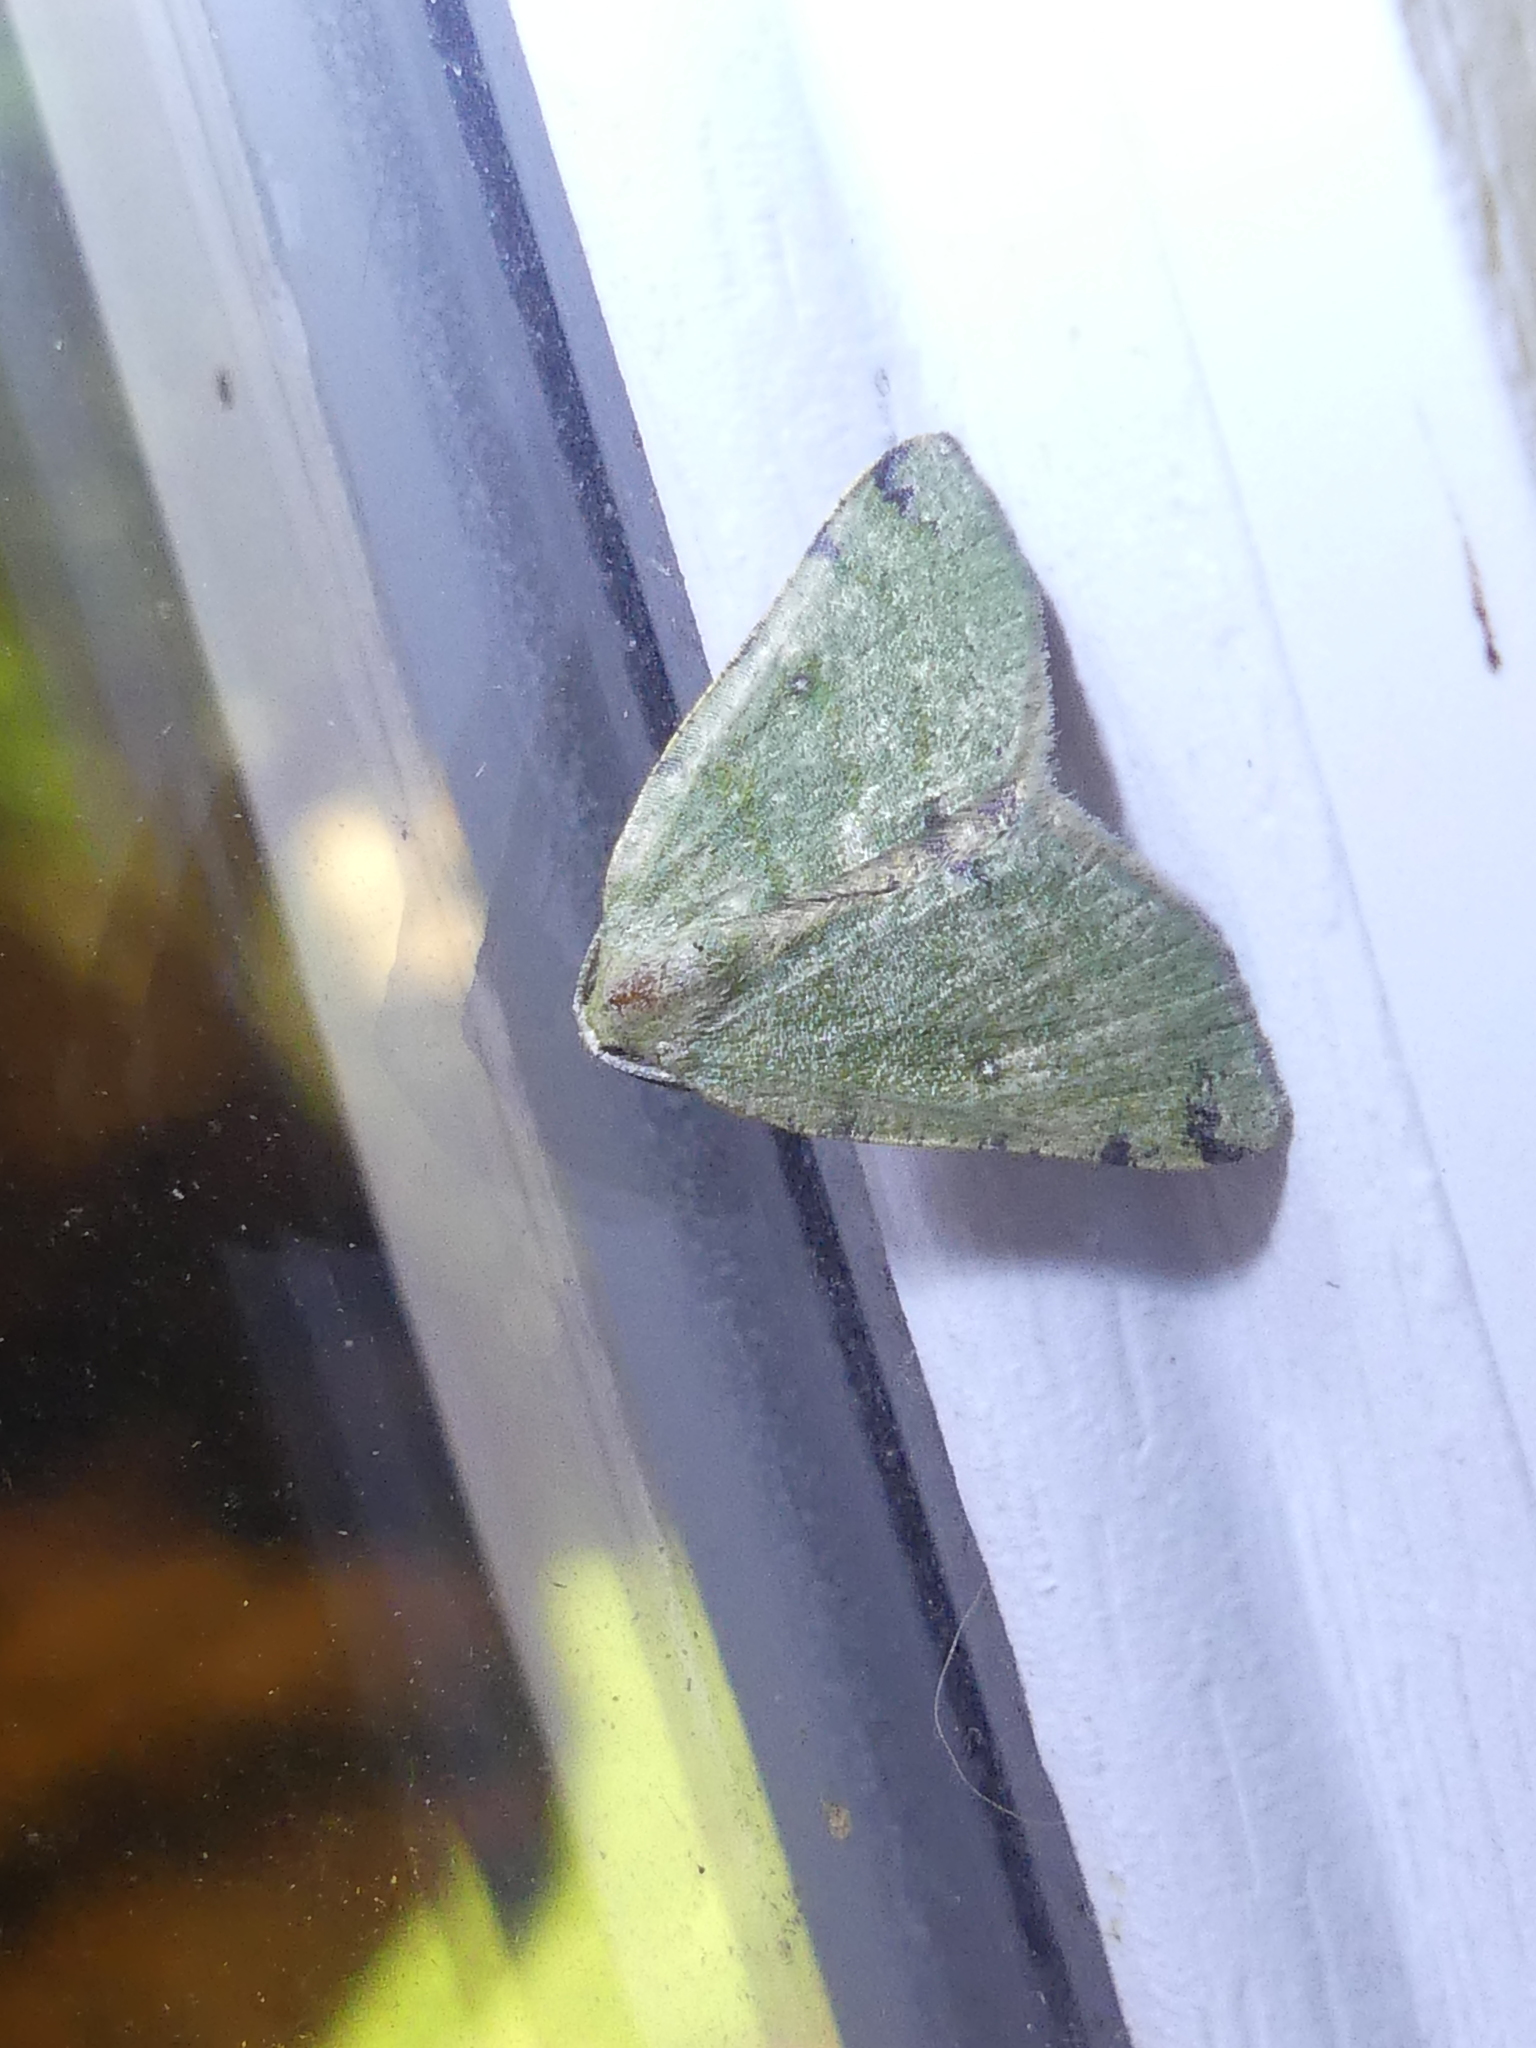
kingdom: Animalia
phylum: Arthropoda
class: Insecta
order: Lepidoptera
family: Geometridae
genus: Chloraspilates
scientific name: Chloraspilates bicoloraria
